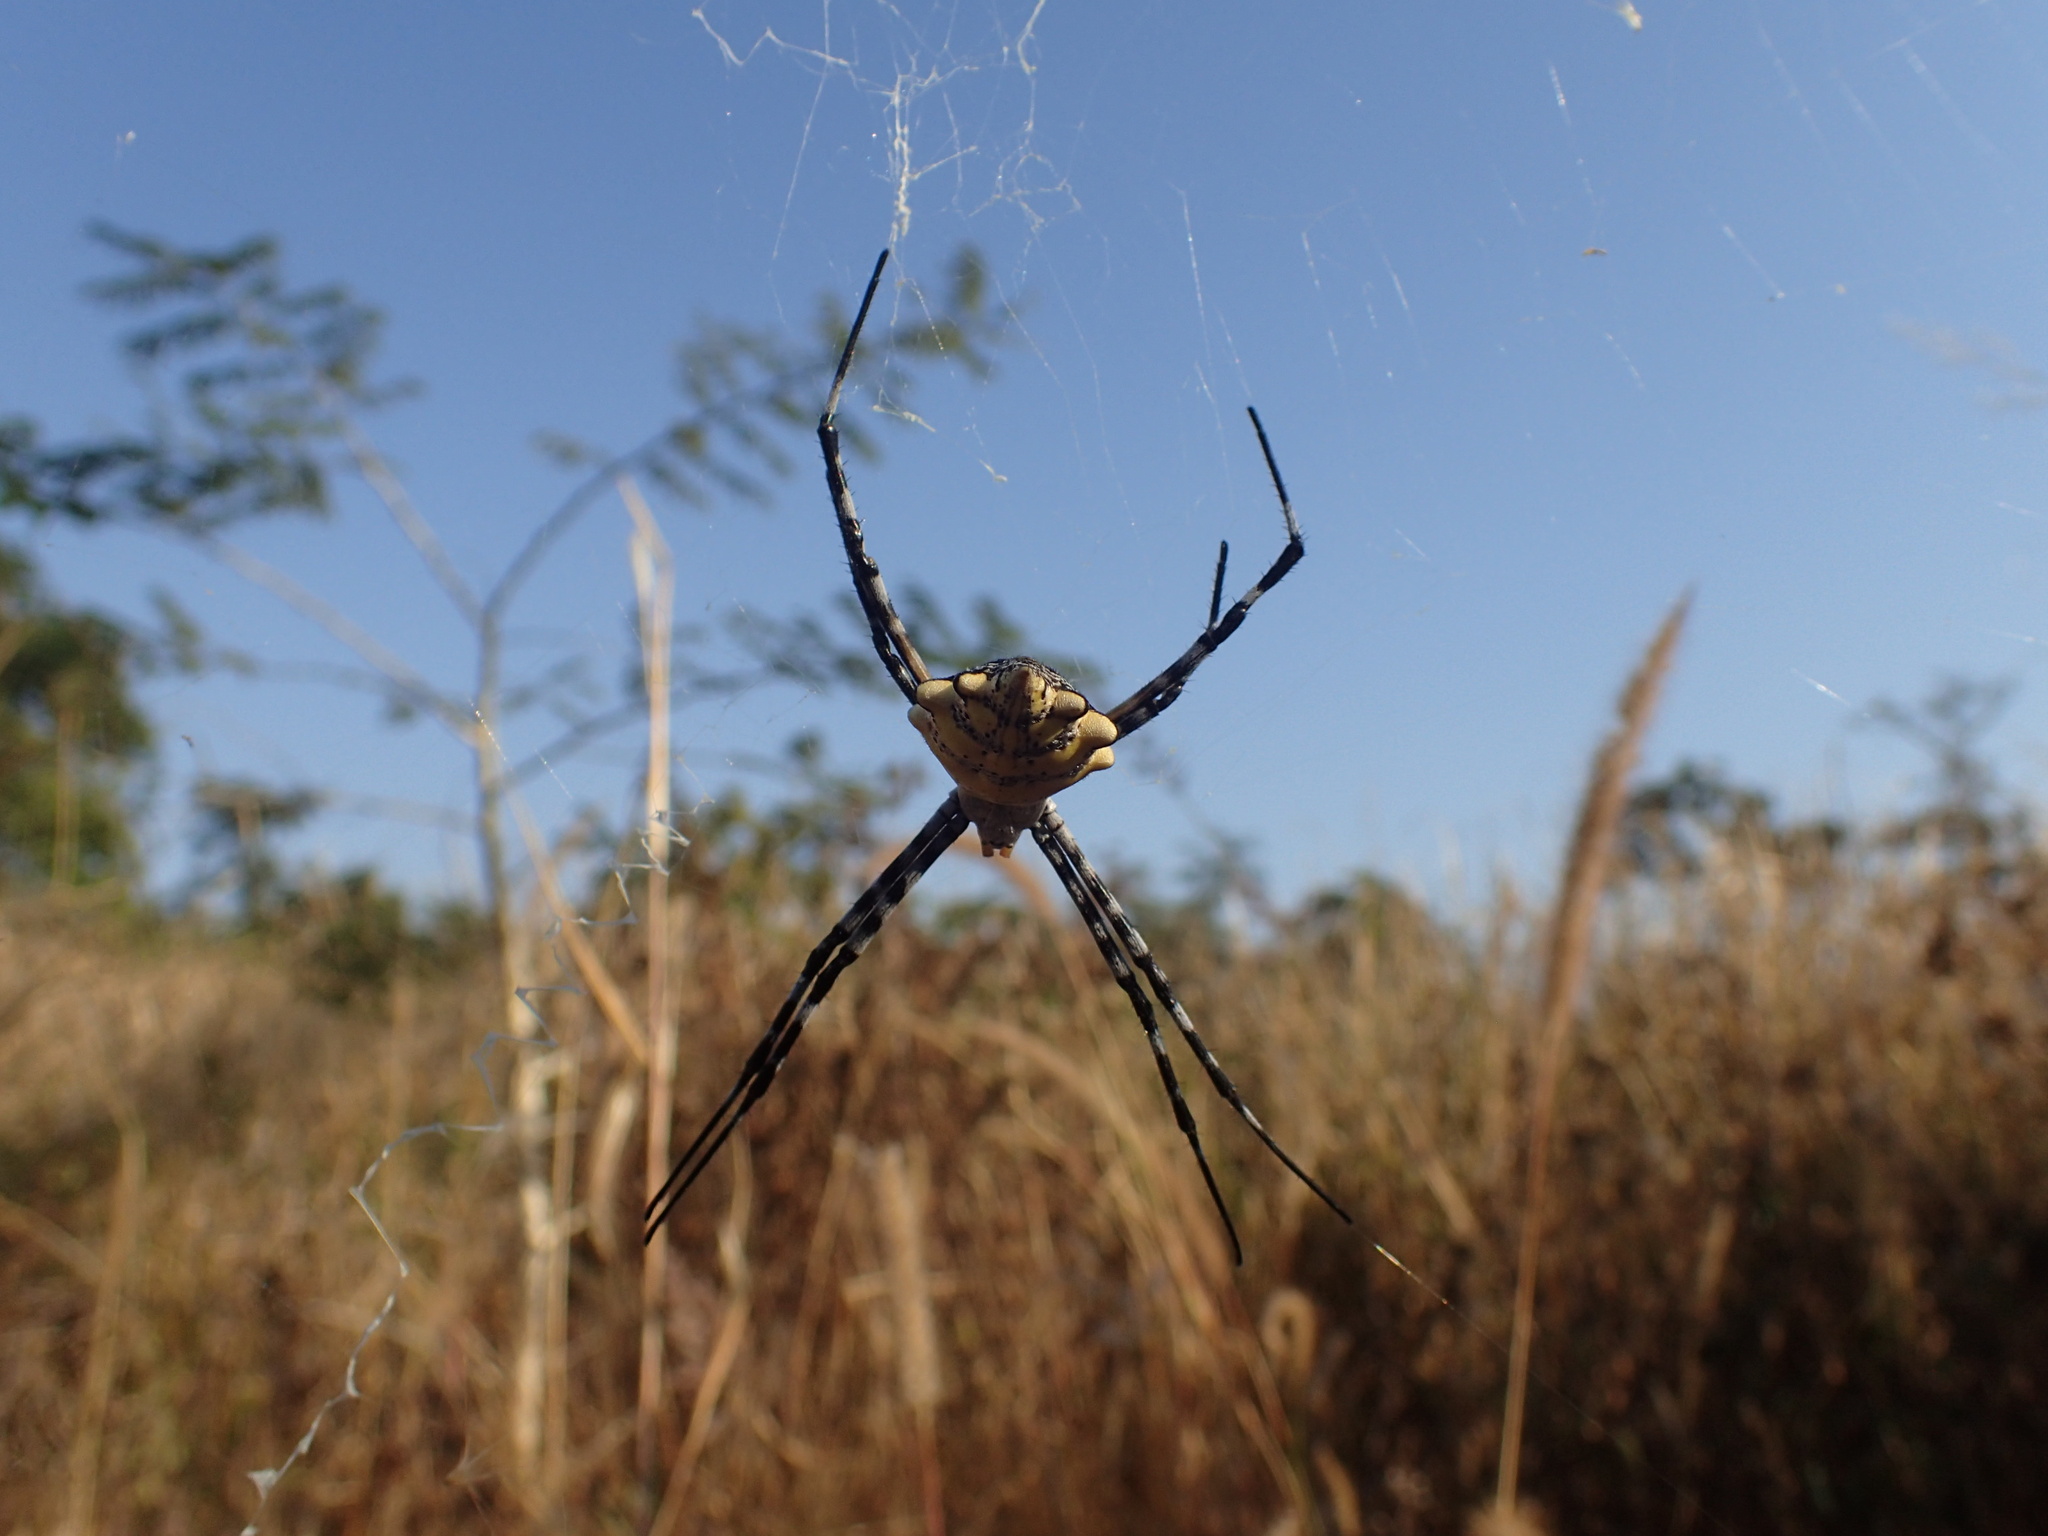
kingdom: Animalia
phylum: Arthropoda
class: Arachnida
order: Araneae
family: Araneidae
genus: Argiope
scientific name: Argiope australis
